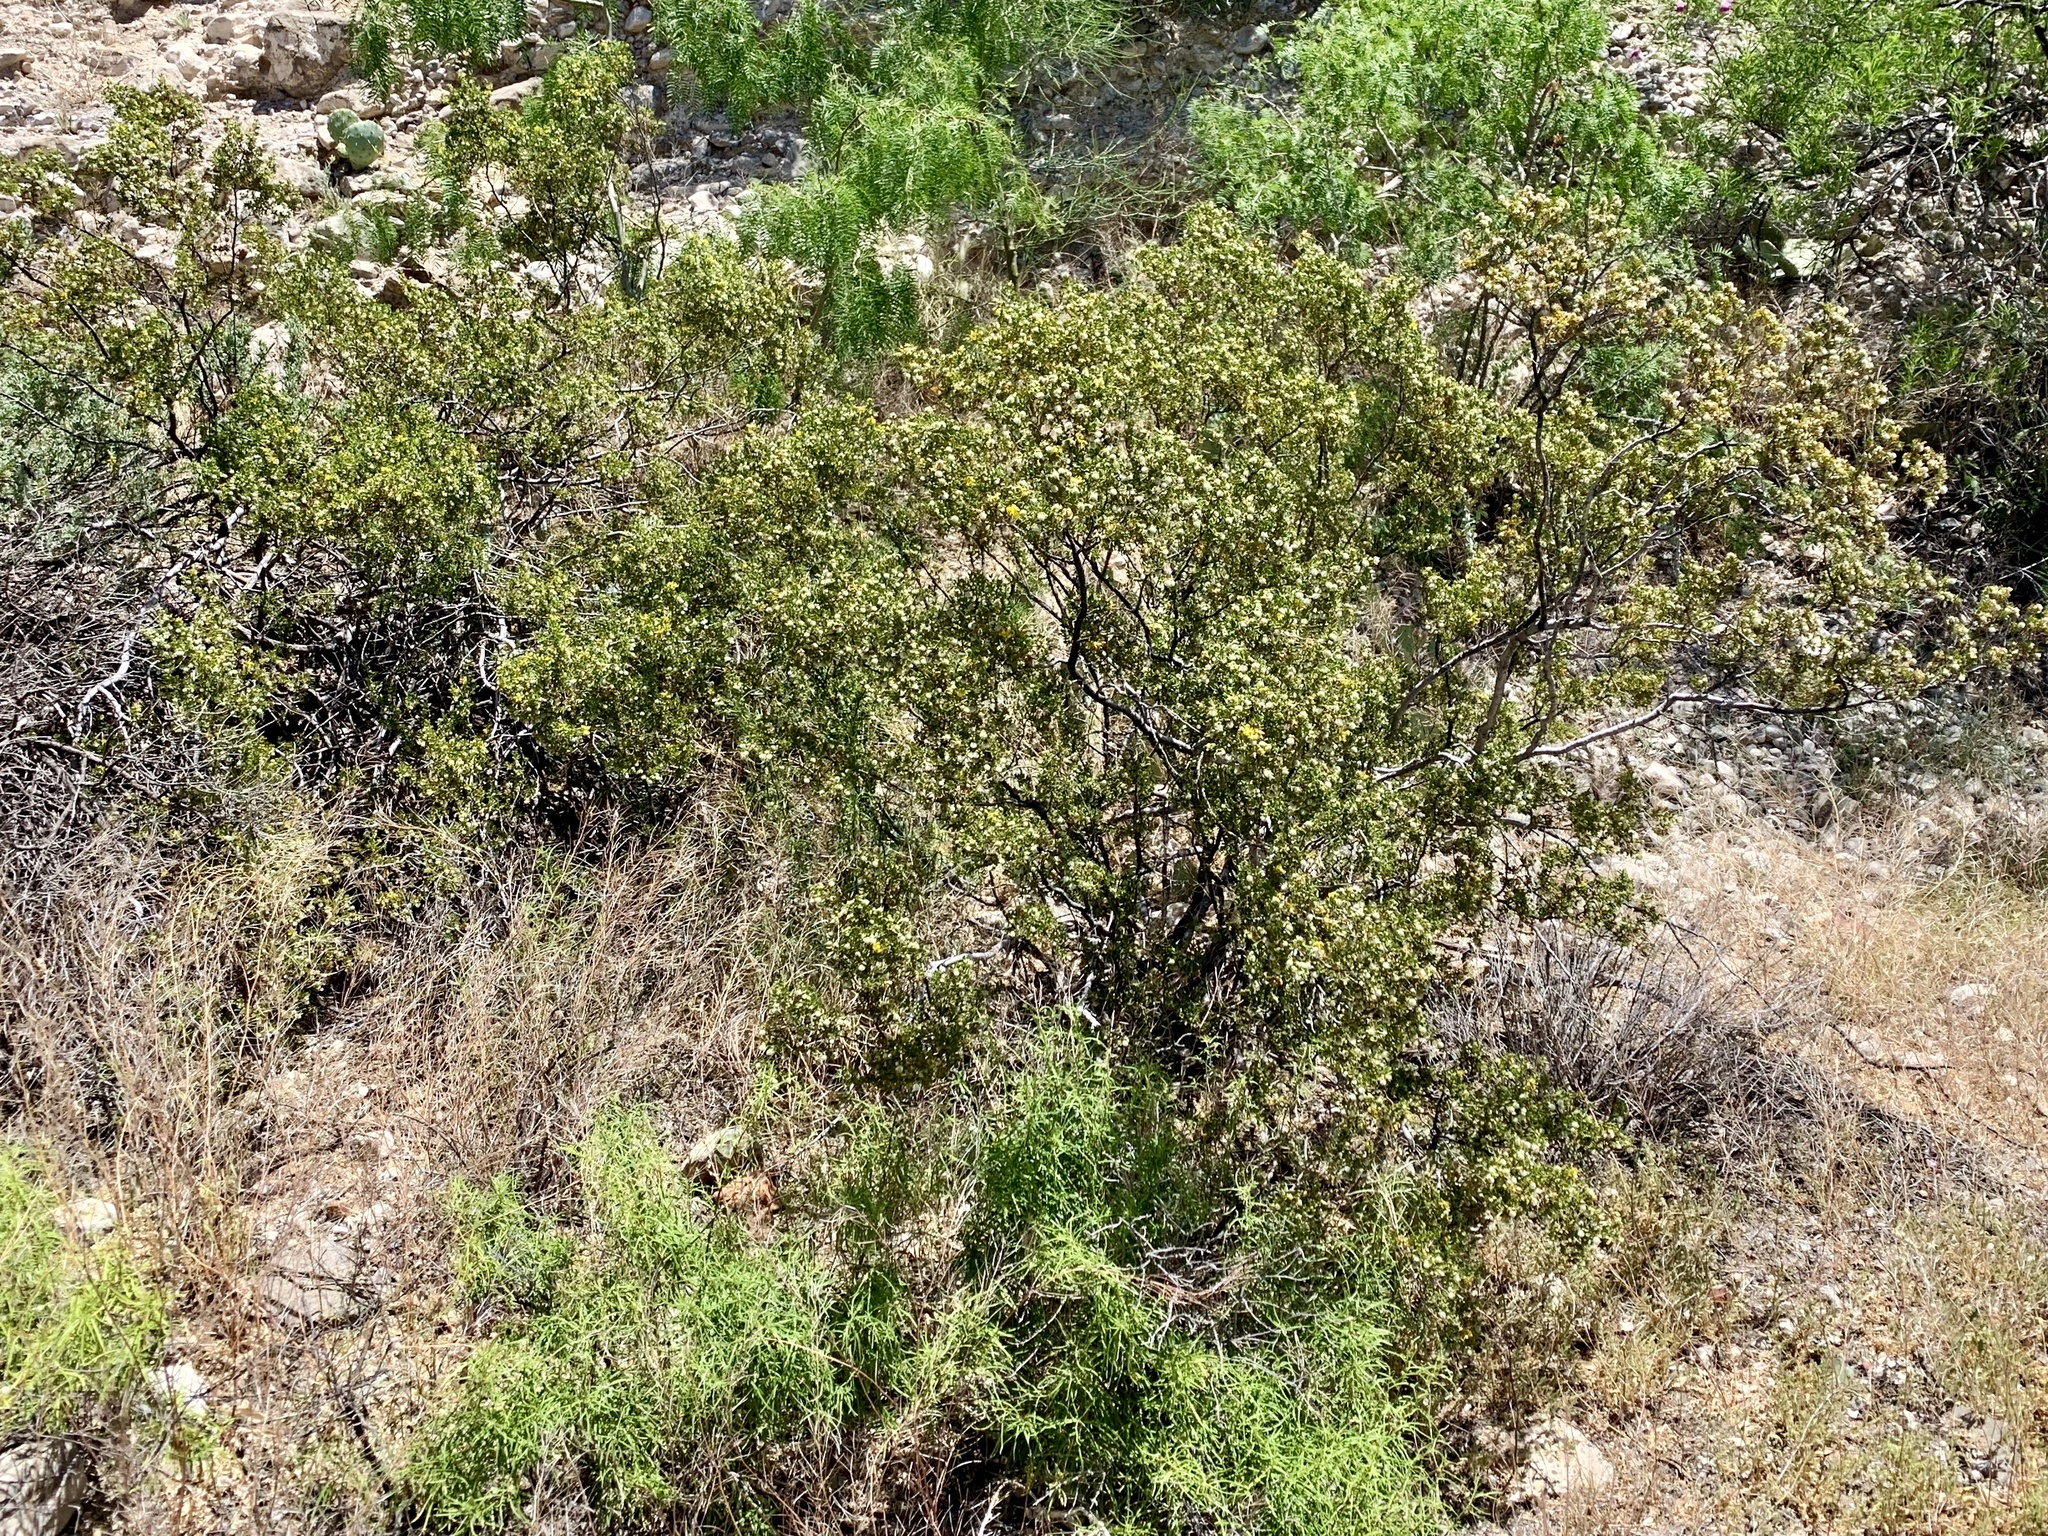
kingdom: Plantae
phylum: Tracheophyta
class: Magnoliopsida
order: Zygophyllales
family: Zygophyllaceae
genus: Larrea
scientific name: Larrea tridentata
